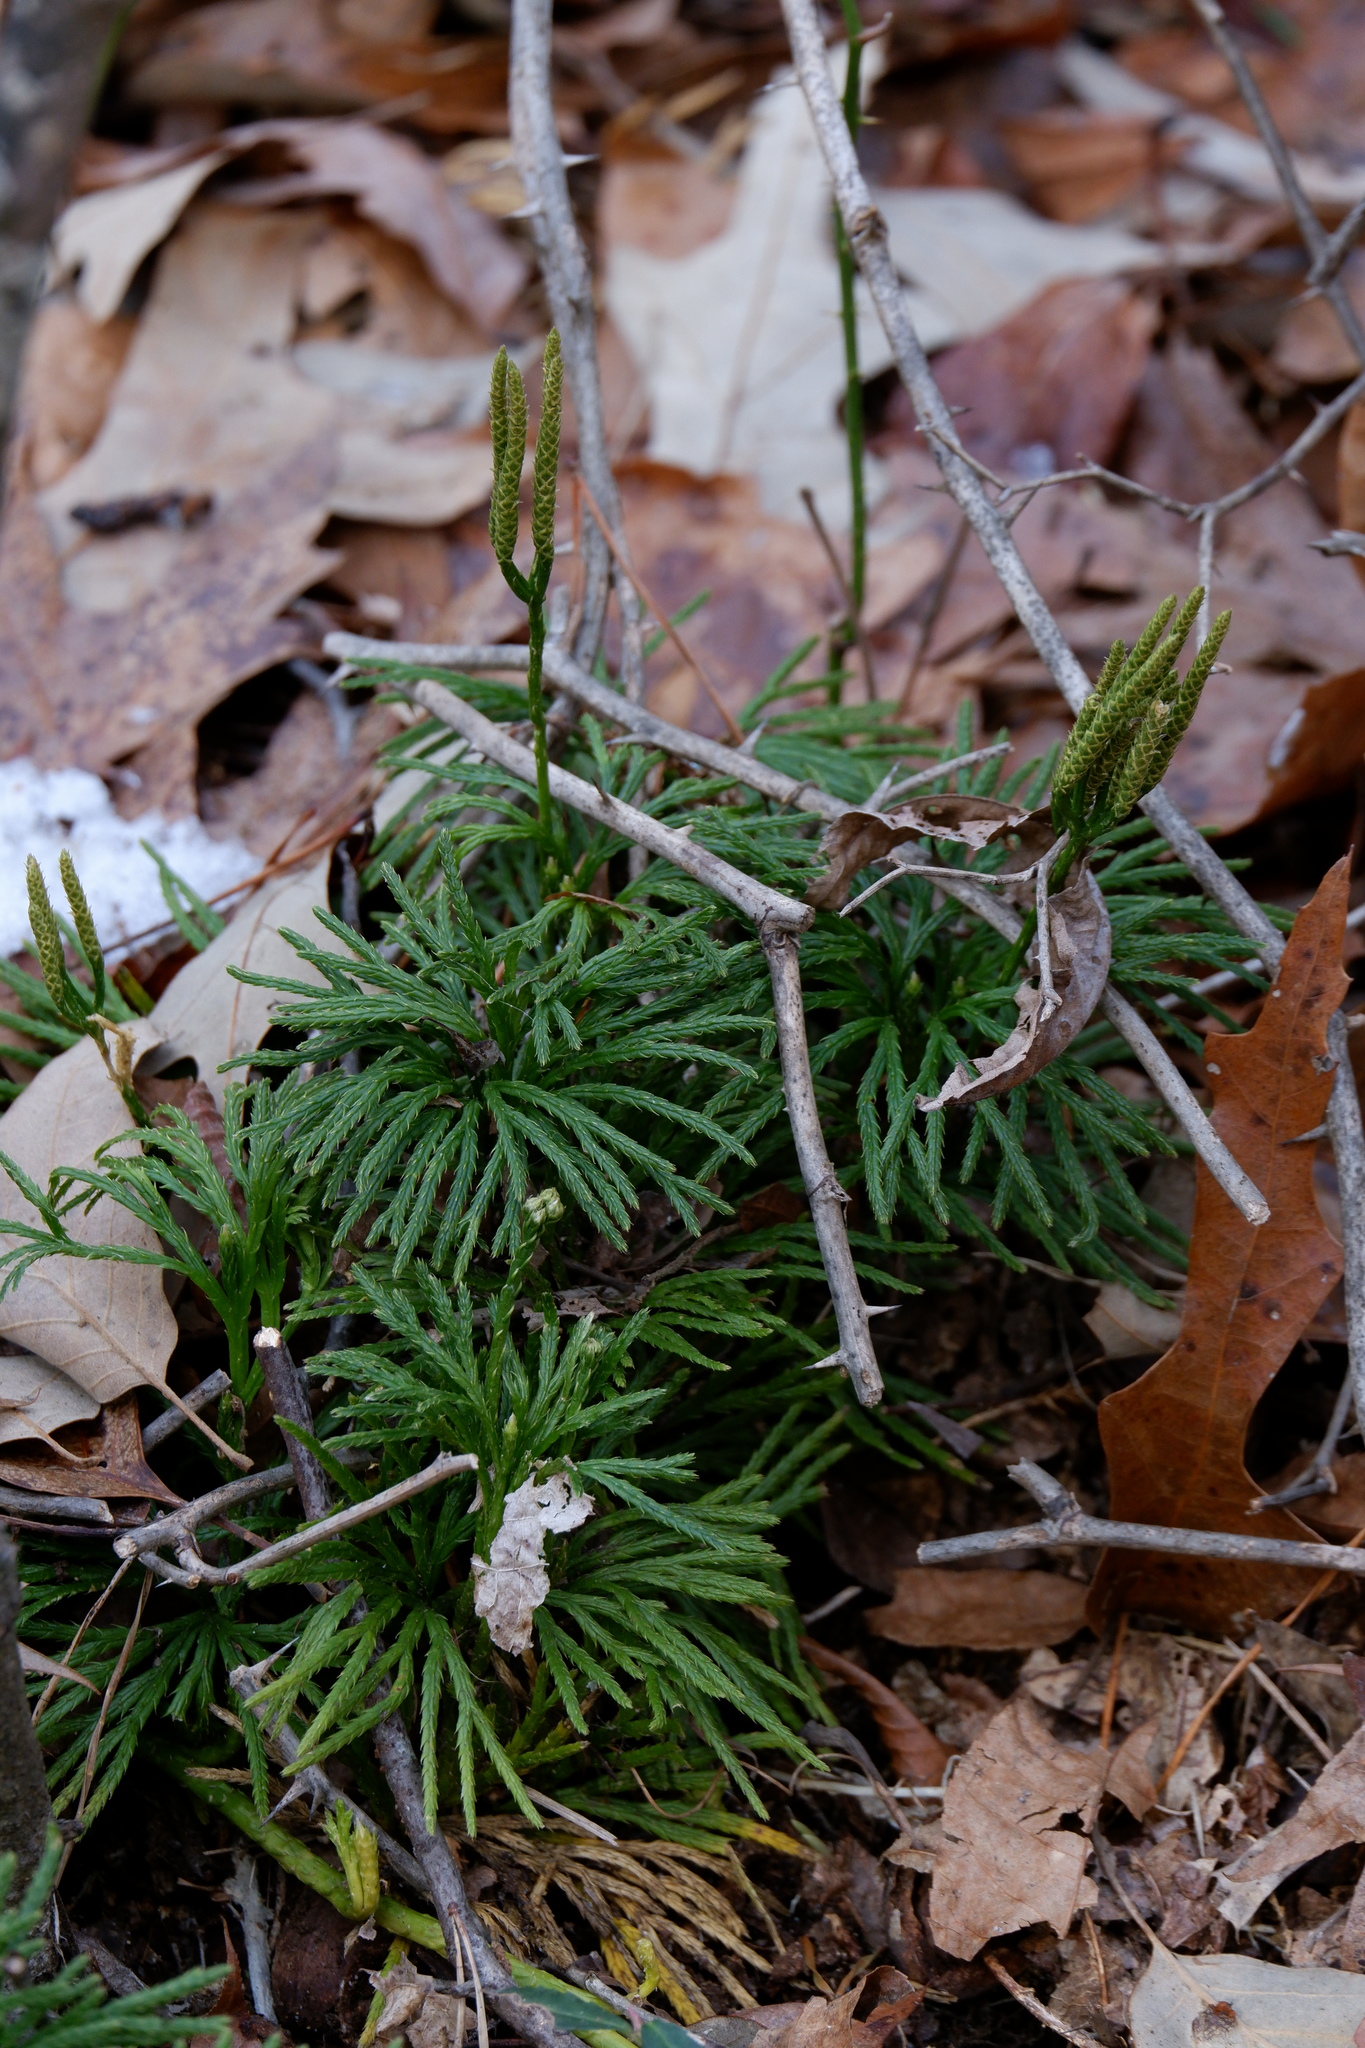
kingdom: Plantae
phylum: Tracheophyta
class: Lycopodiopsida
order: Lycopodiales
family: Lycopodiaceae
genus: Diphasiastrum
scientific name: Diphasiastrum digitatum
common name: Southern running-pine
